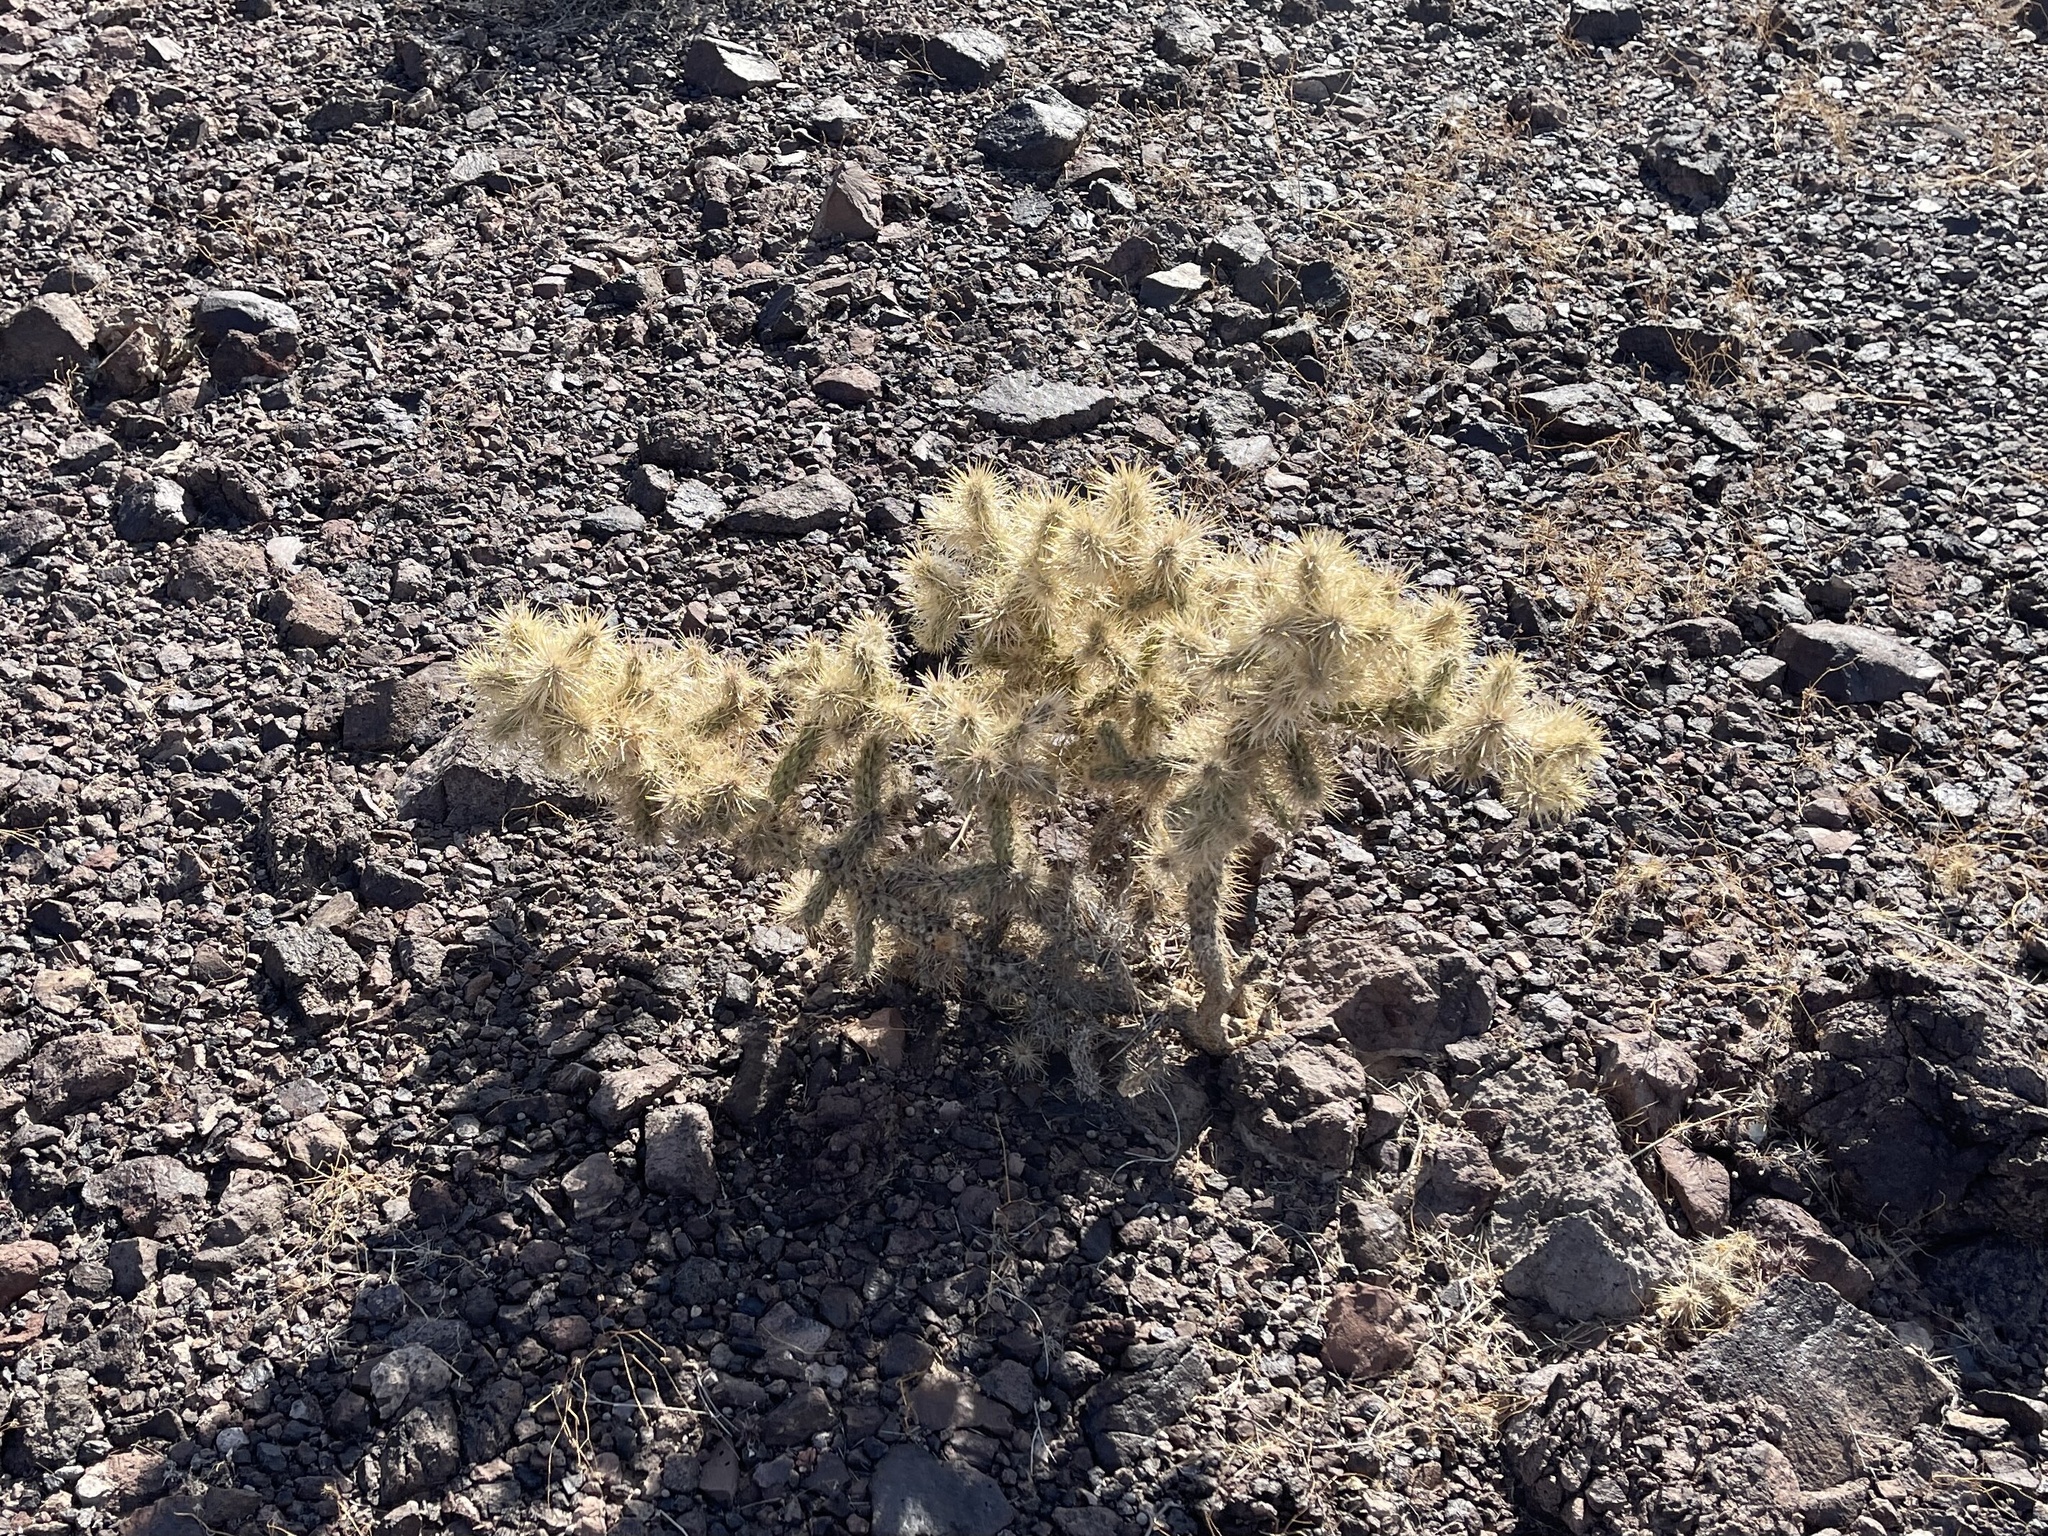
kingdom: Plantae
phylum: Tracheophyta
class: Magnoliopsida
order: Caryophyllales
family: Cactaceae
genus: Cylindropuntia
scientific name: Cylindropuntia echinocarpa
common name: Ground cholla
